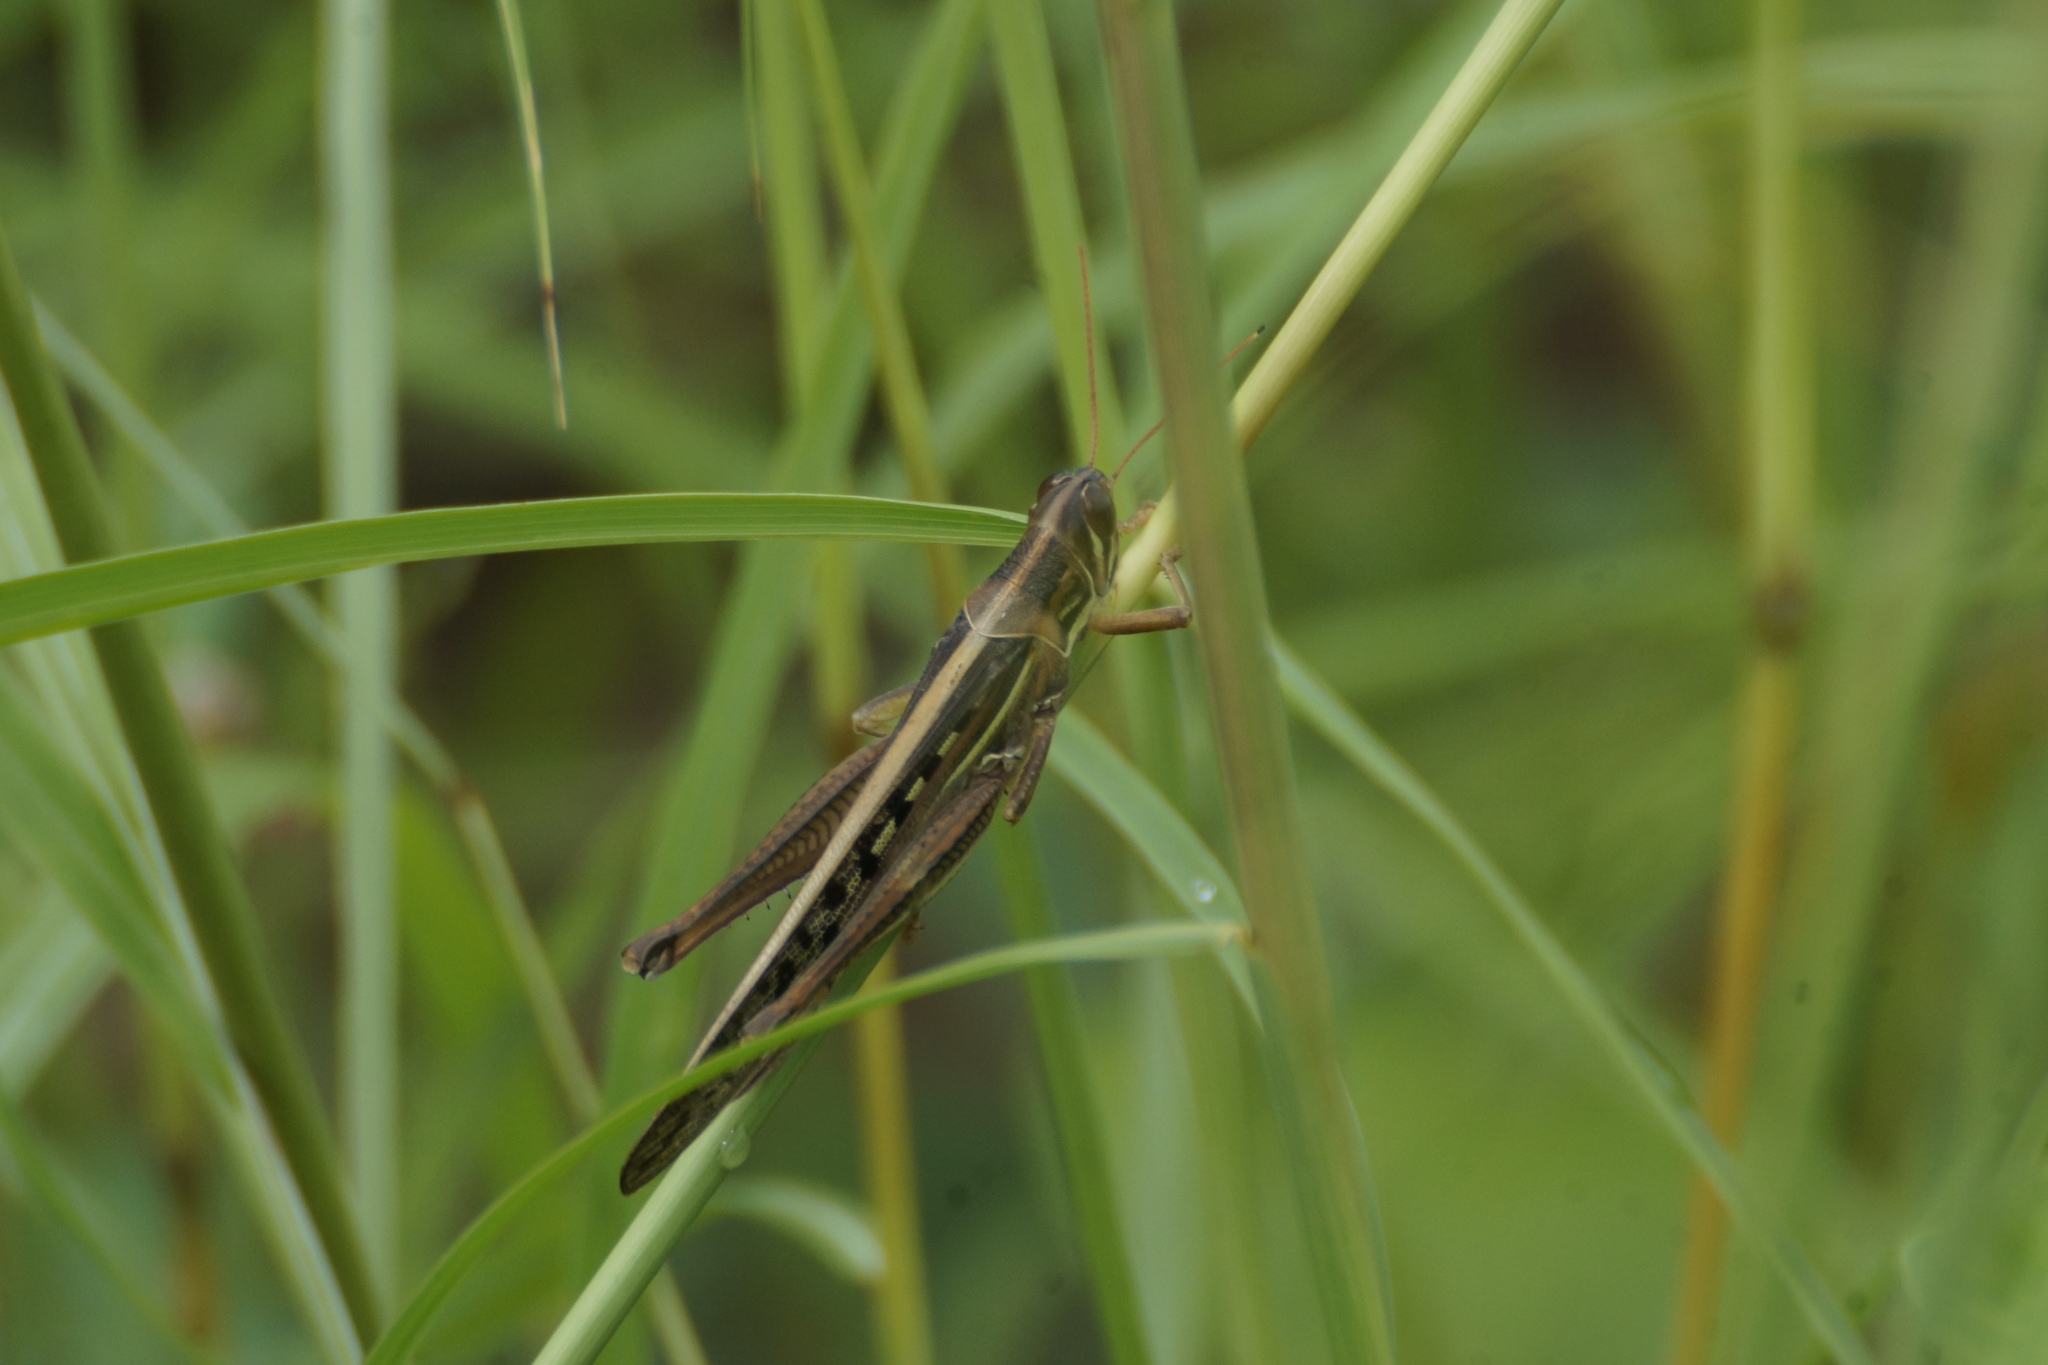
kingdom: Animalia
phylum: Arthropoda
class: Insecta
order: Orthoptera
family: Acrididae
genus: Austracris
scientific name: Austracris guttulosa
